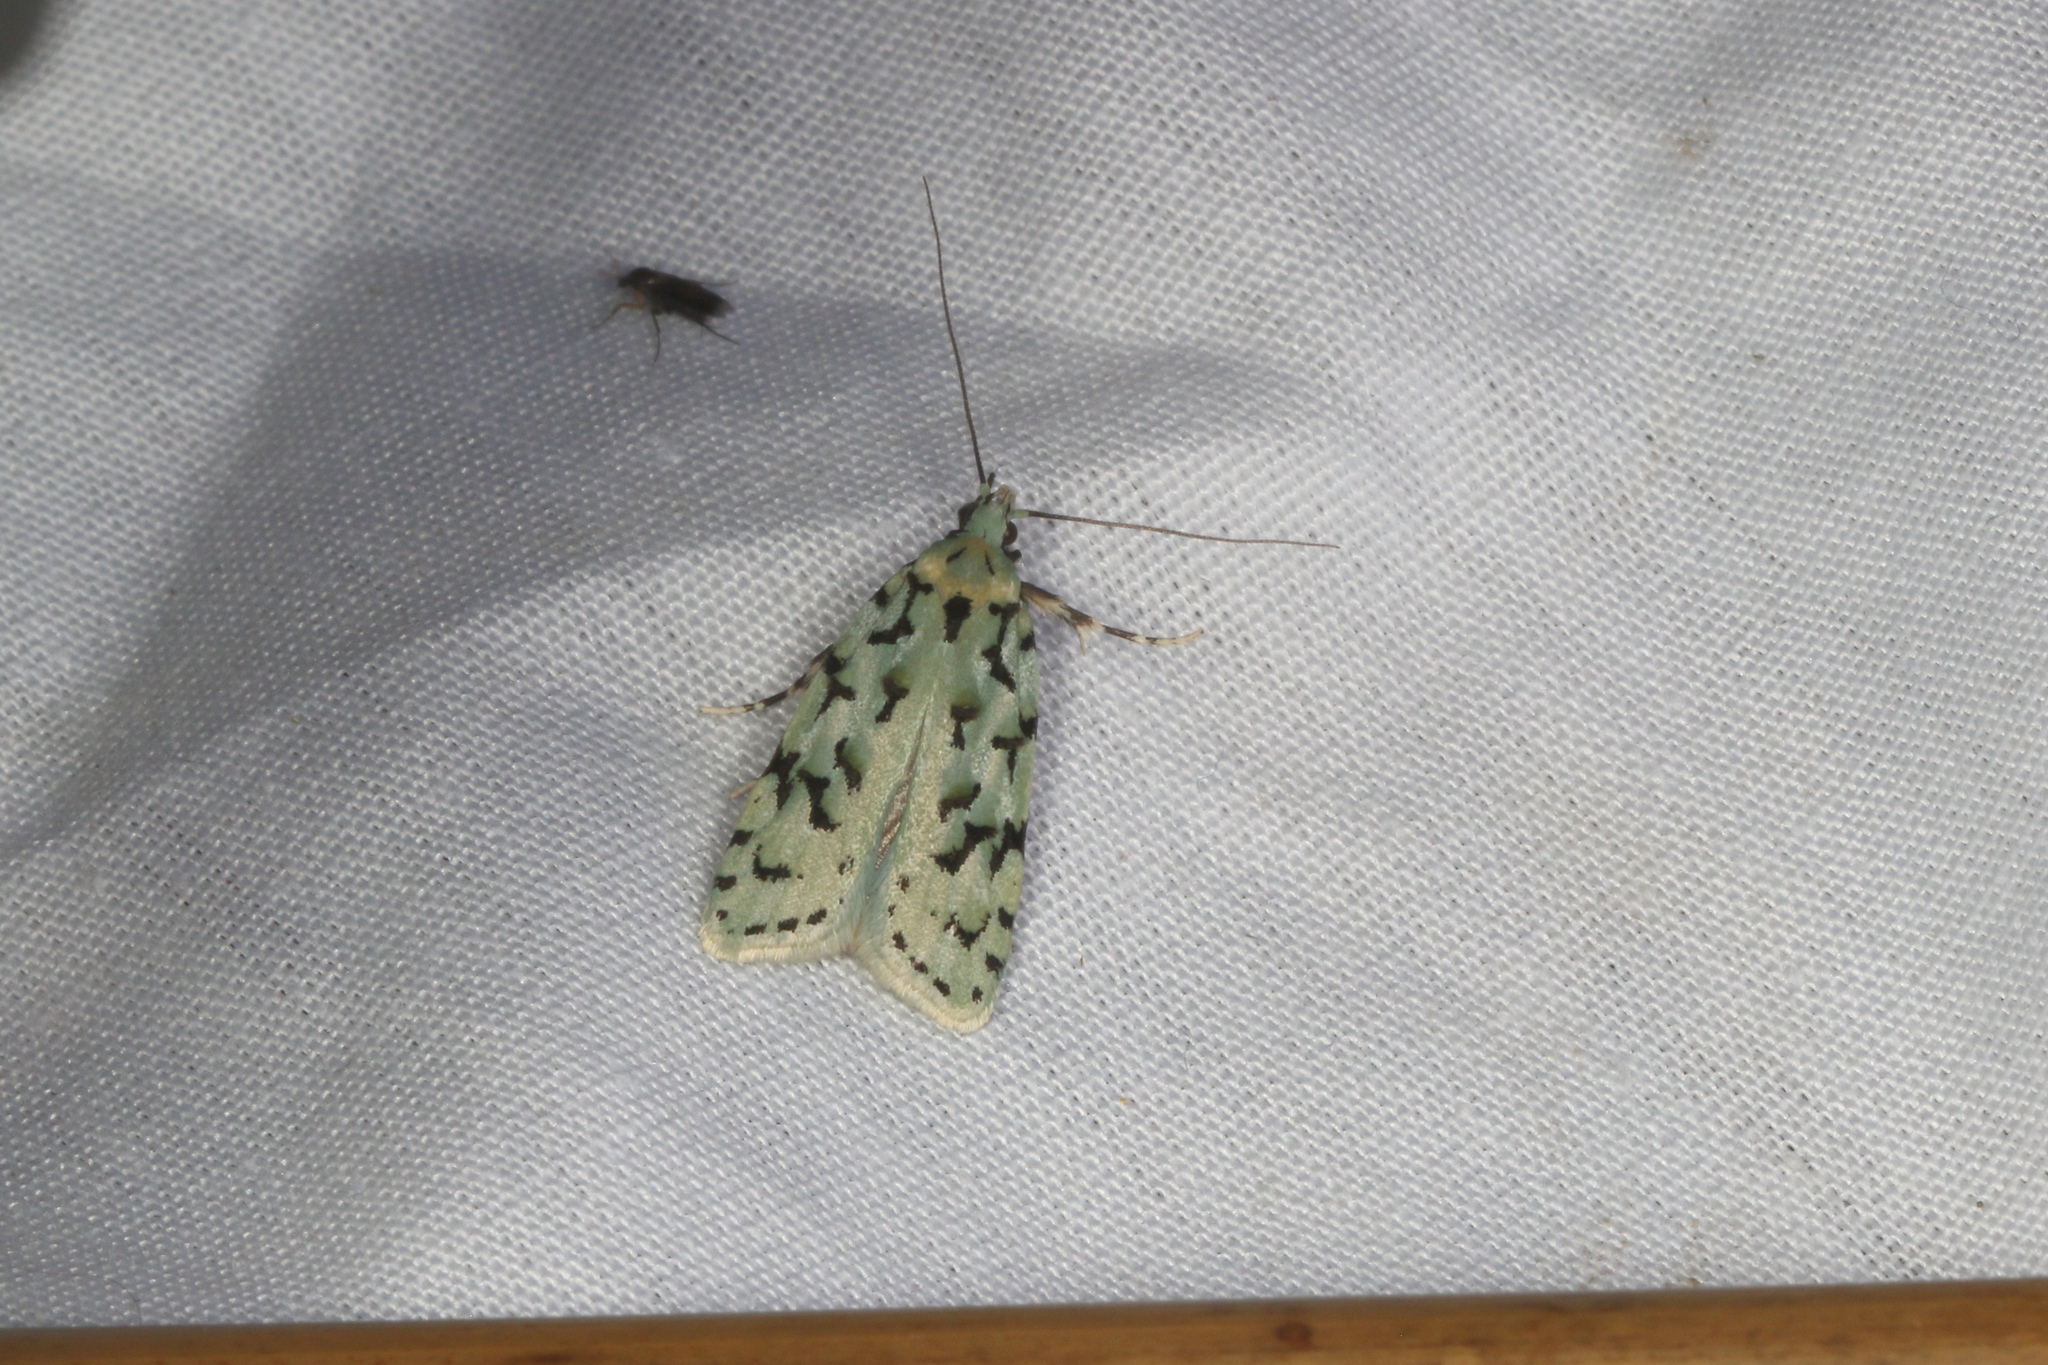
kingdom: Animalia
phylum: Arthropoda
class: Insecta
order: Lepidoptera
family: Oecophoridae
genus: Izatha
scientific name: Izatha peroneanella
